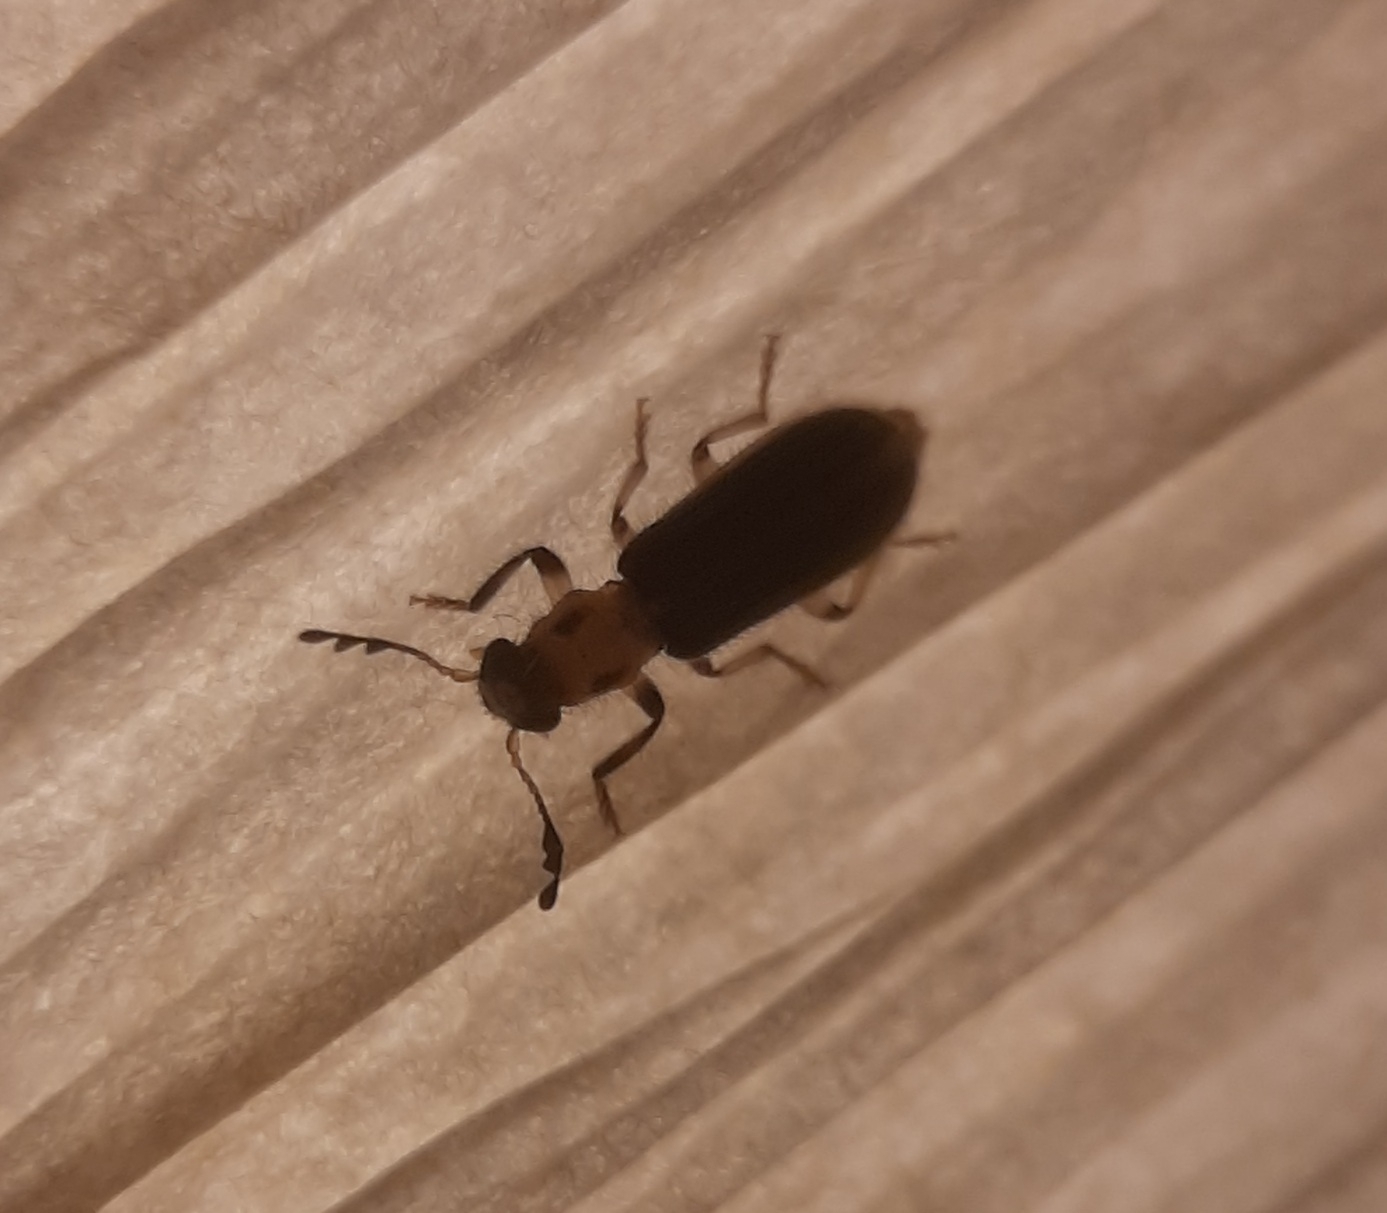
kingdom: Animalia
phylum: Arthropoda
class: Insecta
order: Coleoptera
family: Cleridae
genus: Cregya
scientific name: Cregya oculata
